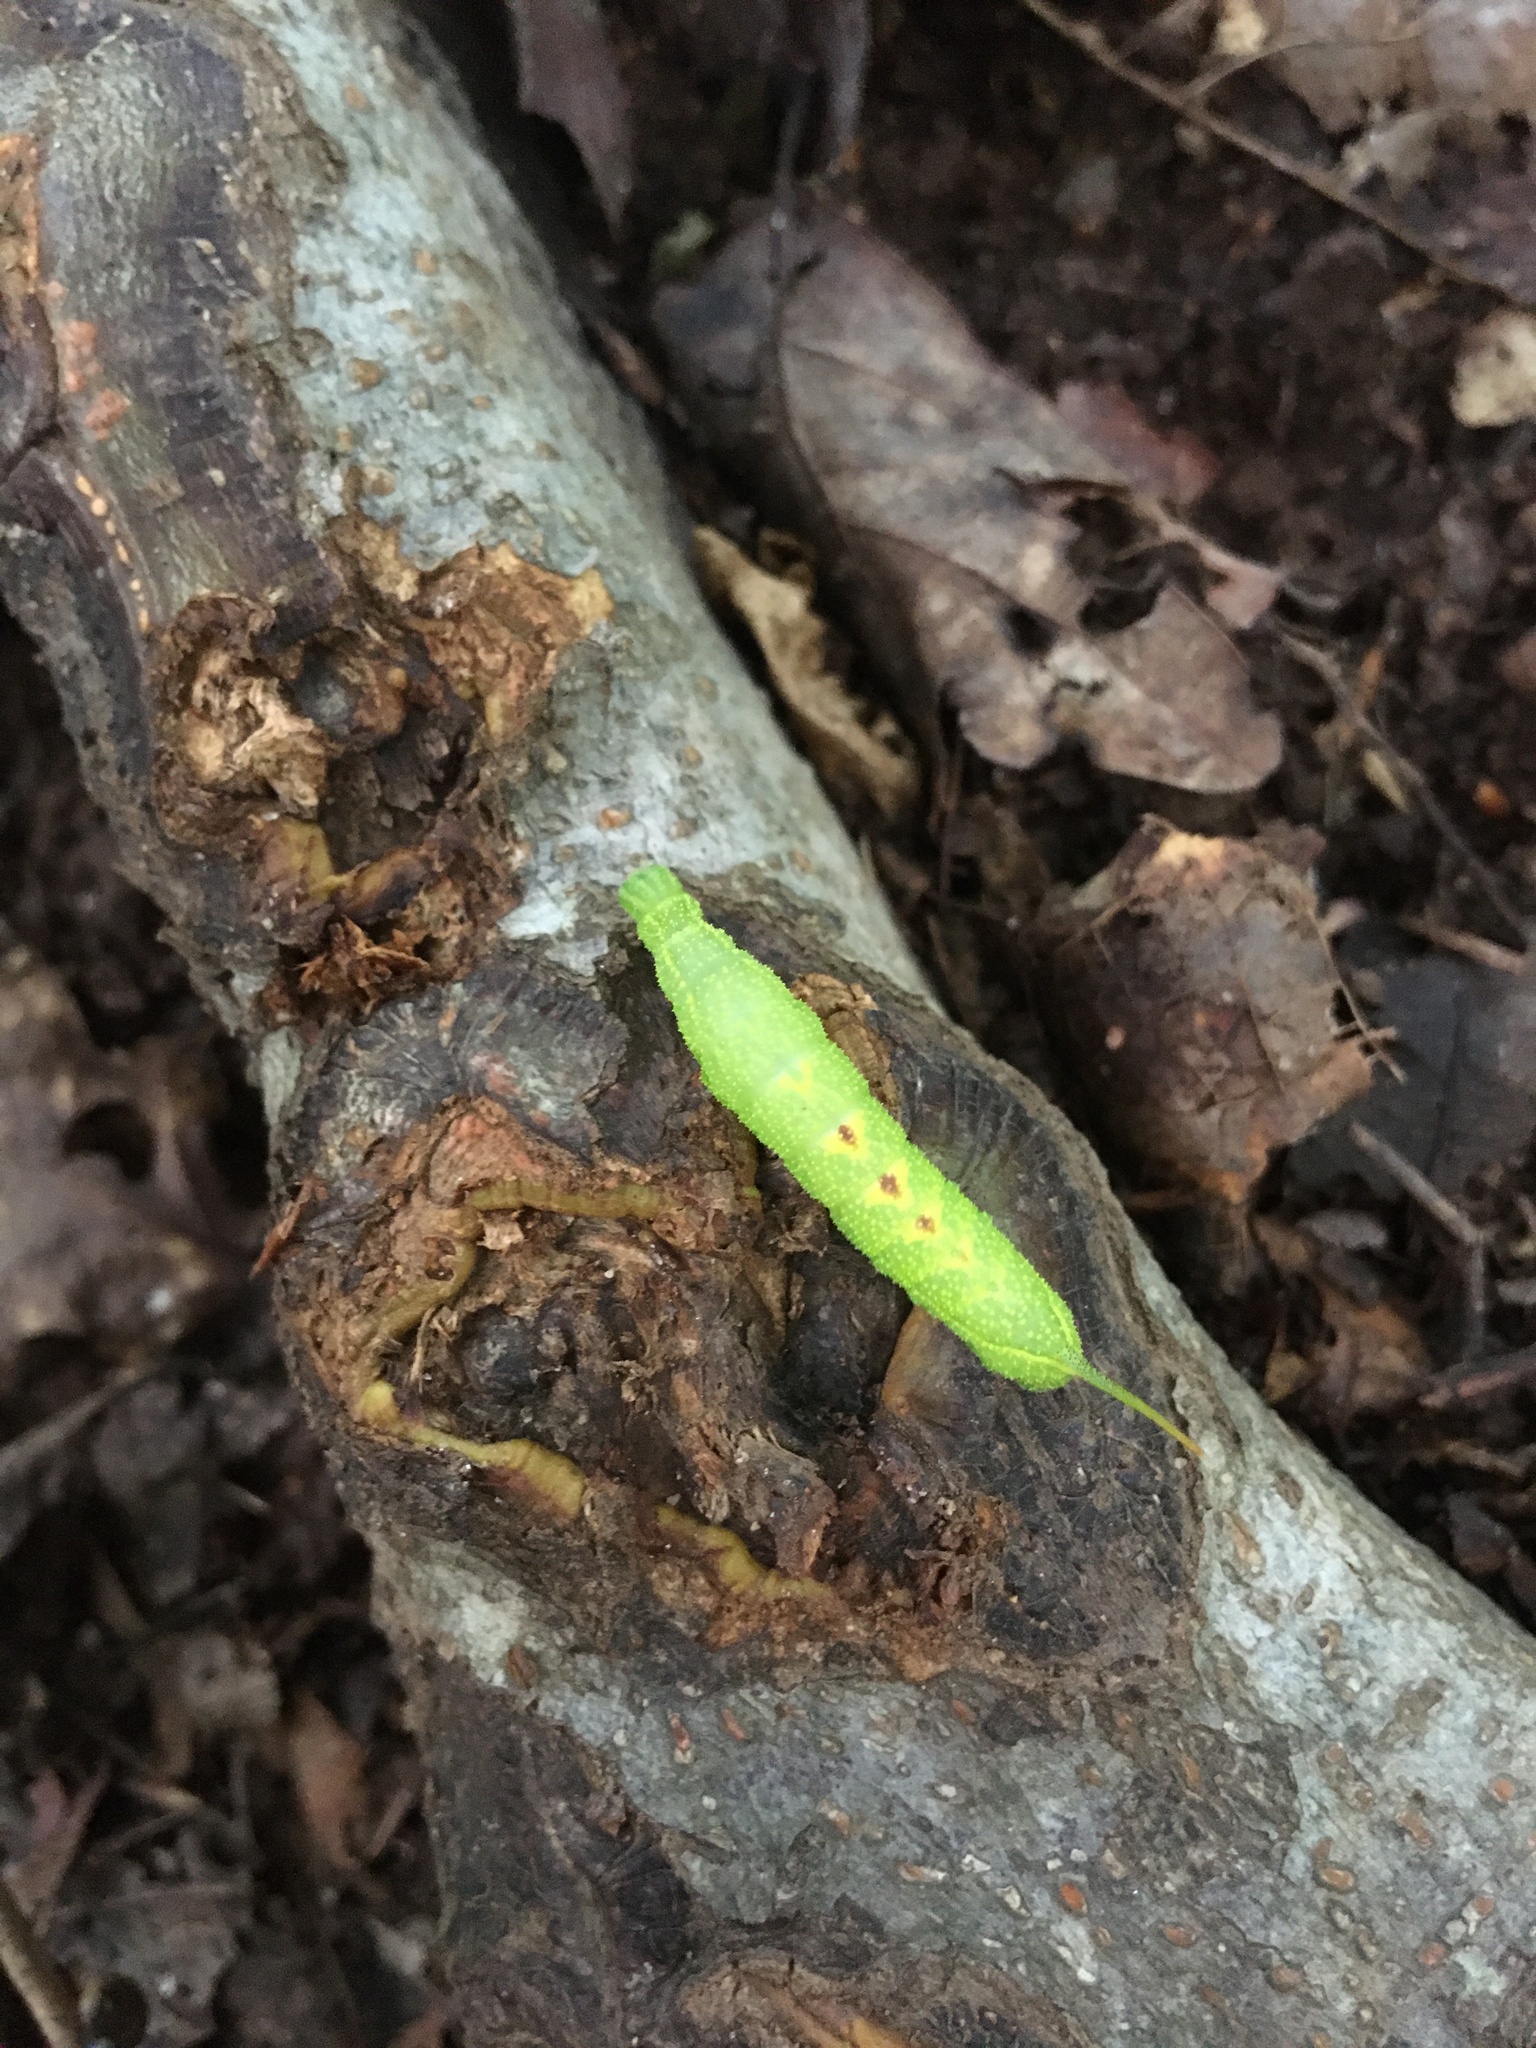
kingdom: Animalia
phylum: Arthropoda
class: Insecta
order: Lepidoptera
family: Sphingidae
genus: Darapsa
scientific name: Darapsa myron
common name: Hog sphinx
